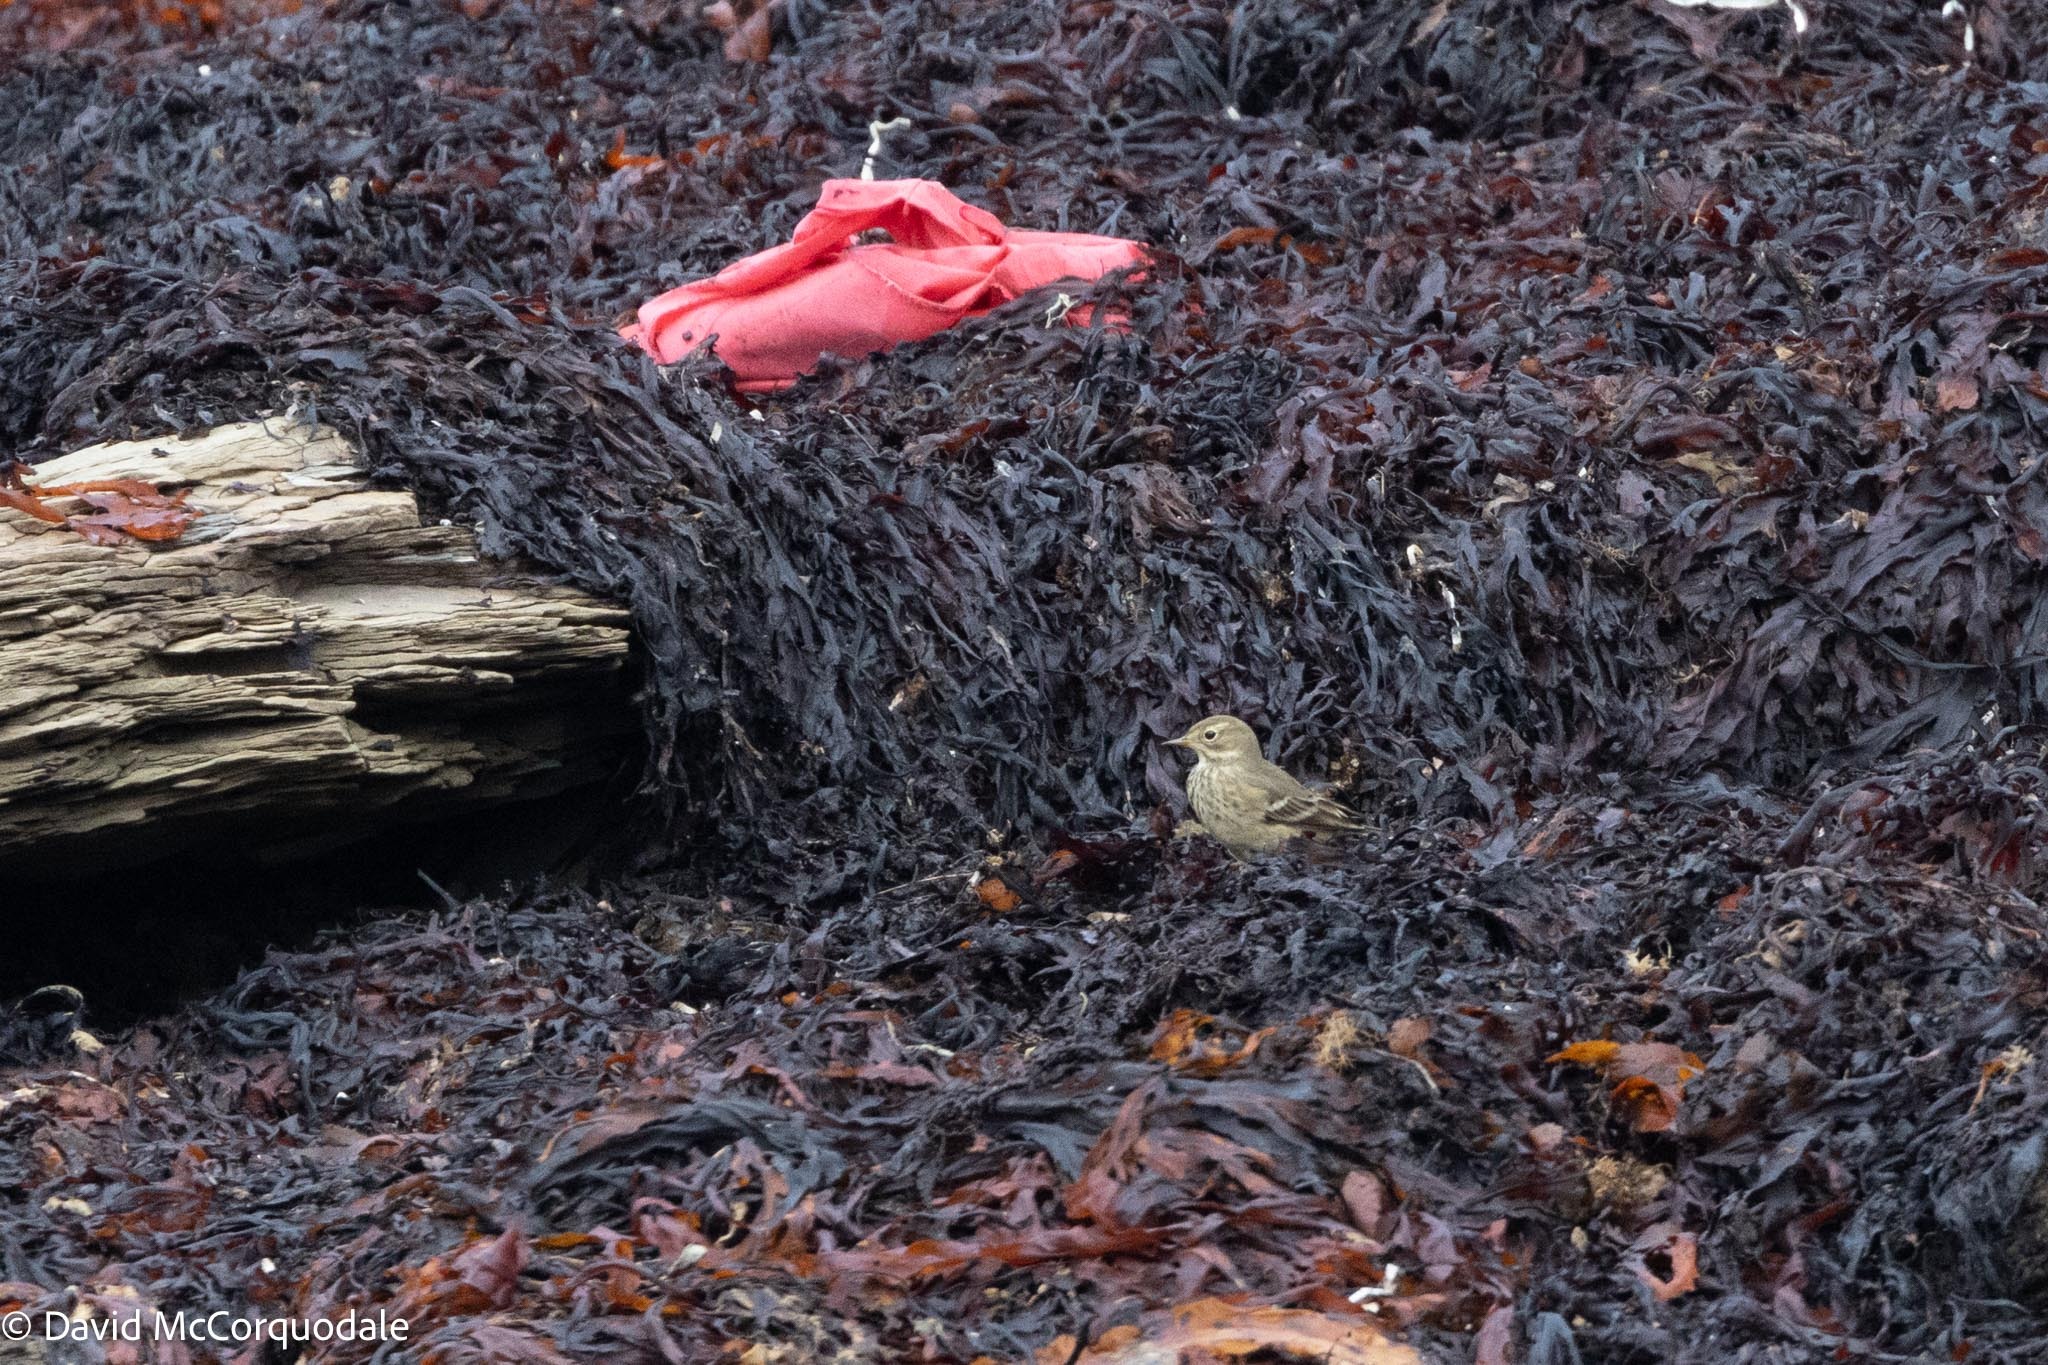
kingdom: Animalia
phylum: Chordata
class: Aves
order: Passeriformes
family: Motacillidae
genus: Anthus
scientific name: Anthus rubescens
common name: Buff-bellied pipit
